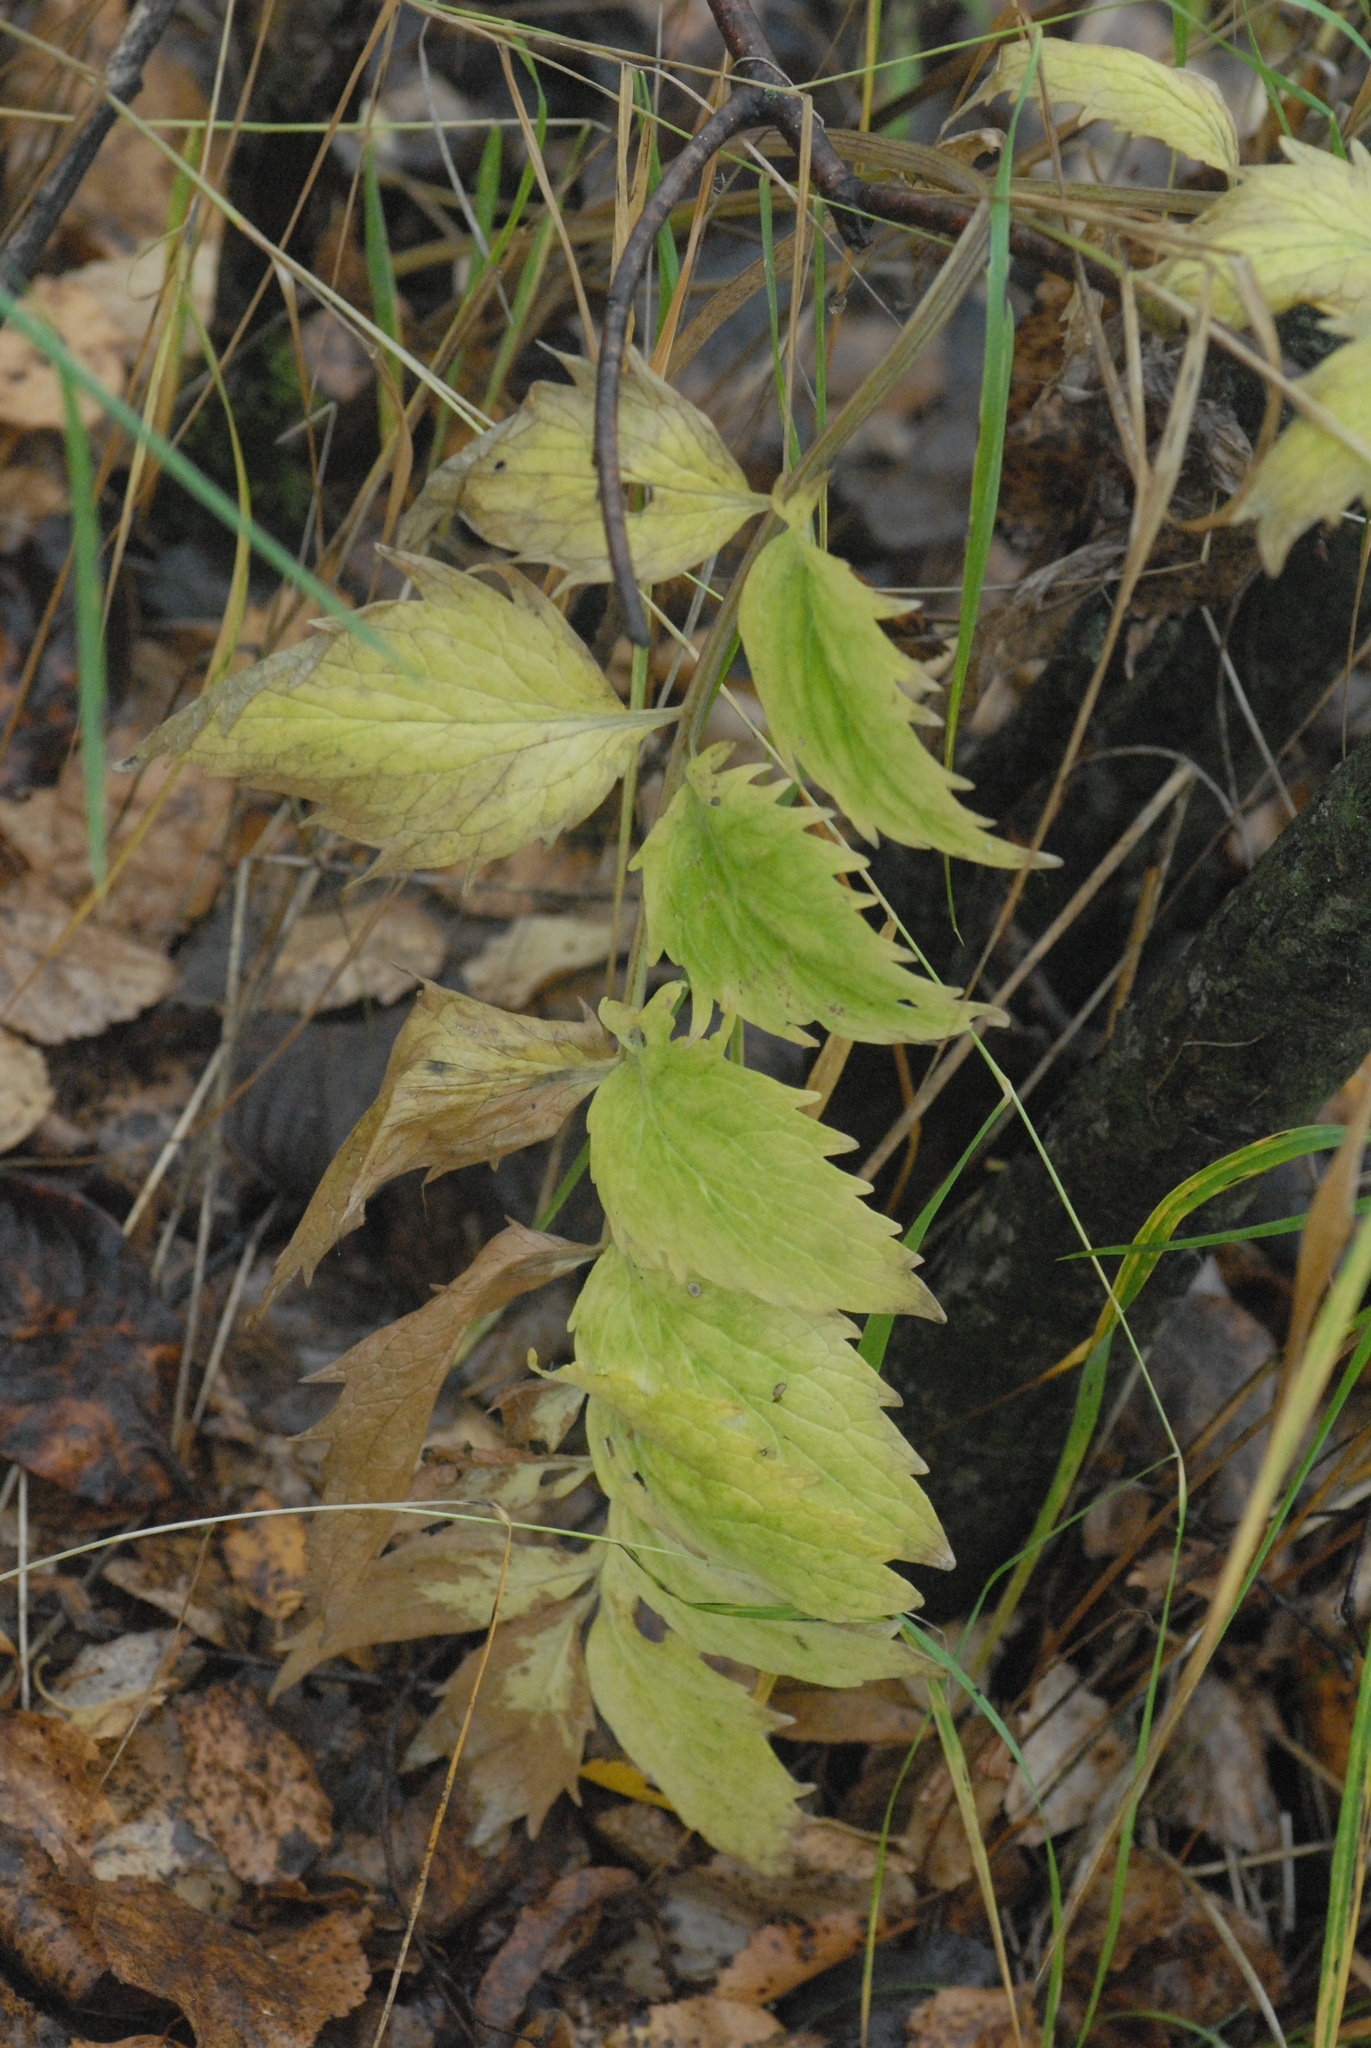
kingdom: Plantae
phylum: Tracheophyta
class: Magnoliopsida
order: Dipsacales
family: Caprifoliaceae
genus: Valeriana
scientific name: Valeriana officinalis
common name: Common valerian
